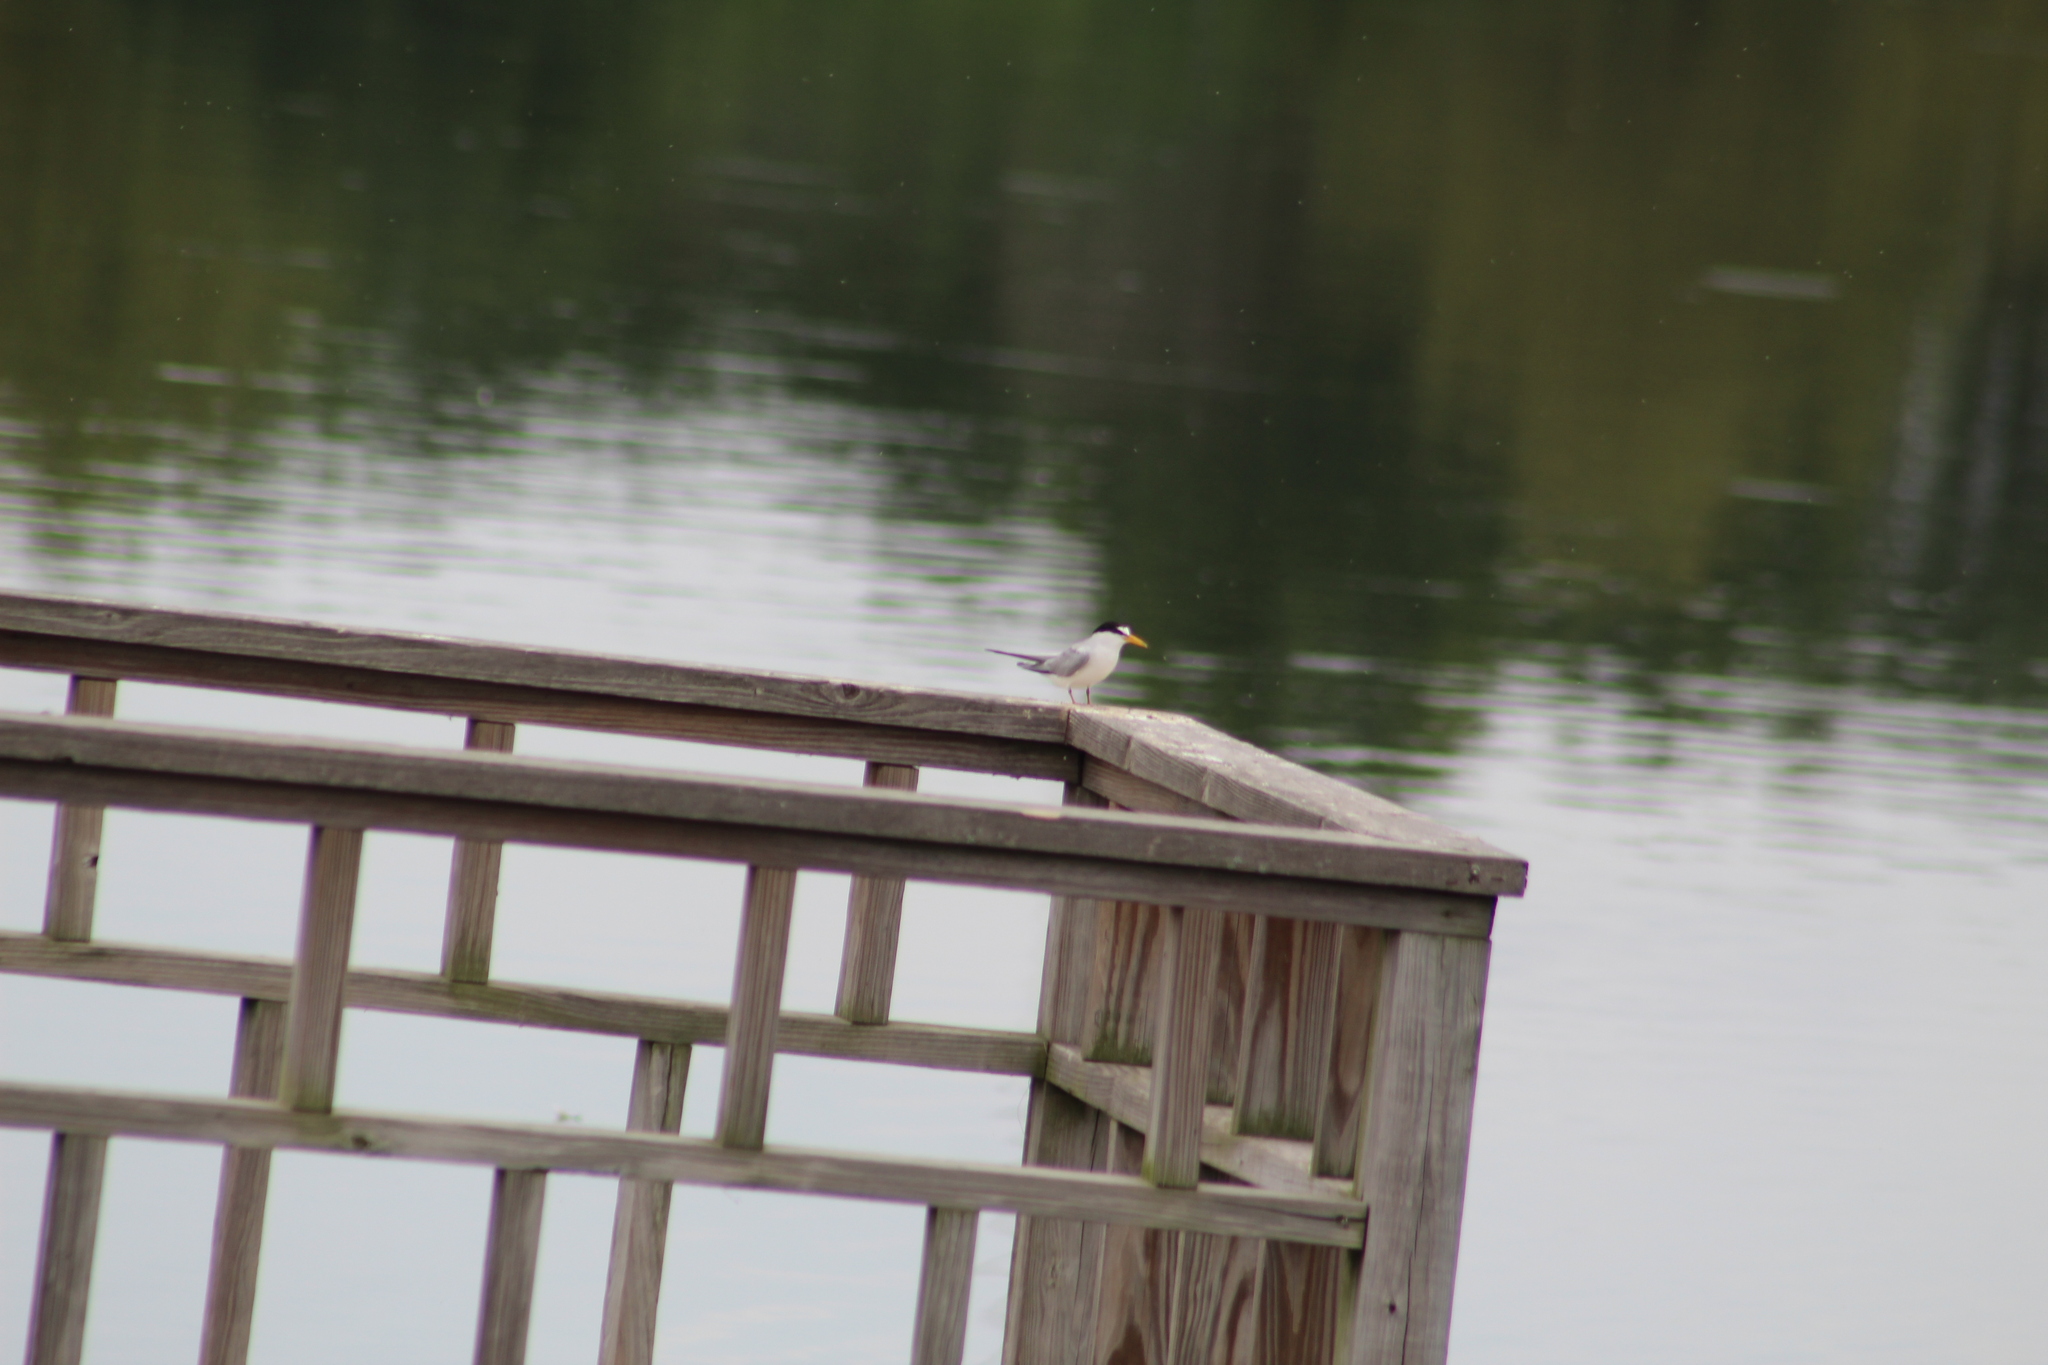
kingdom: Animalia
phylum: Chordata
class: Aves
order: Charadriiformes
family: Laridae
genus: Sternula
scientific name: Sternula antillarum
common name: Least tern
